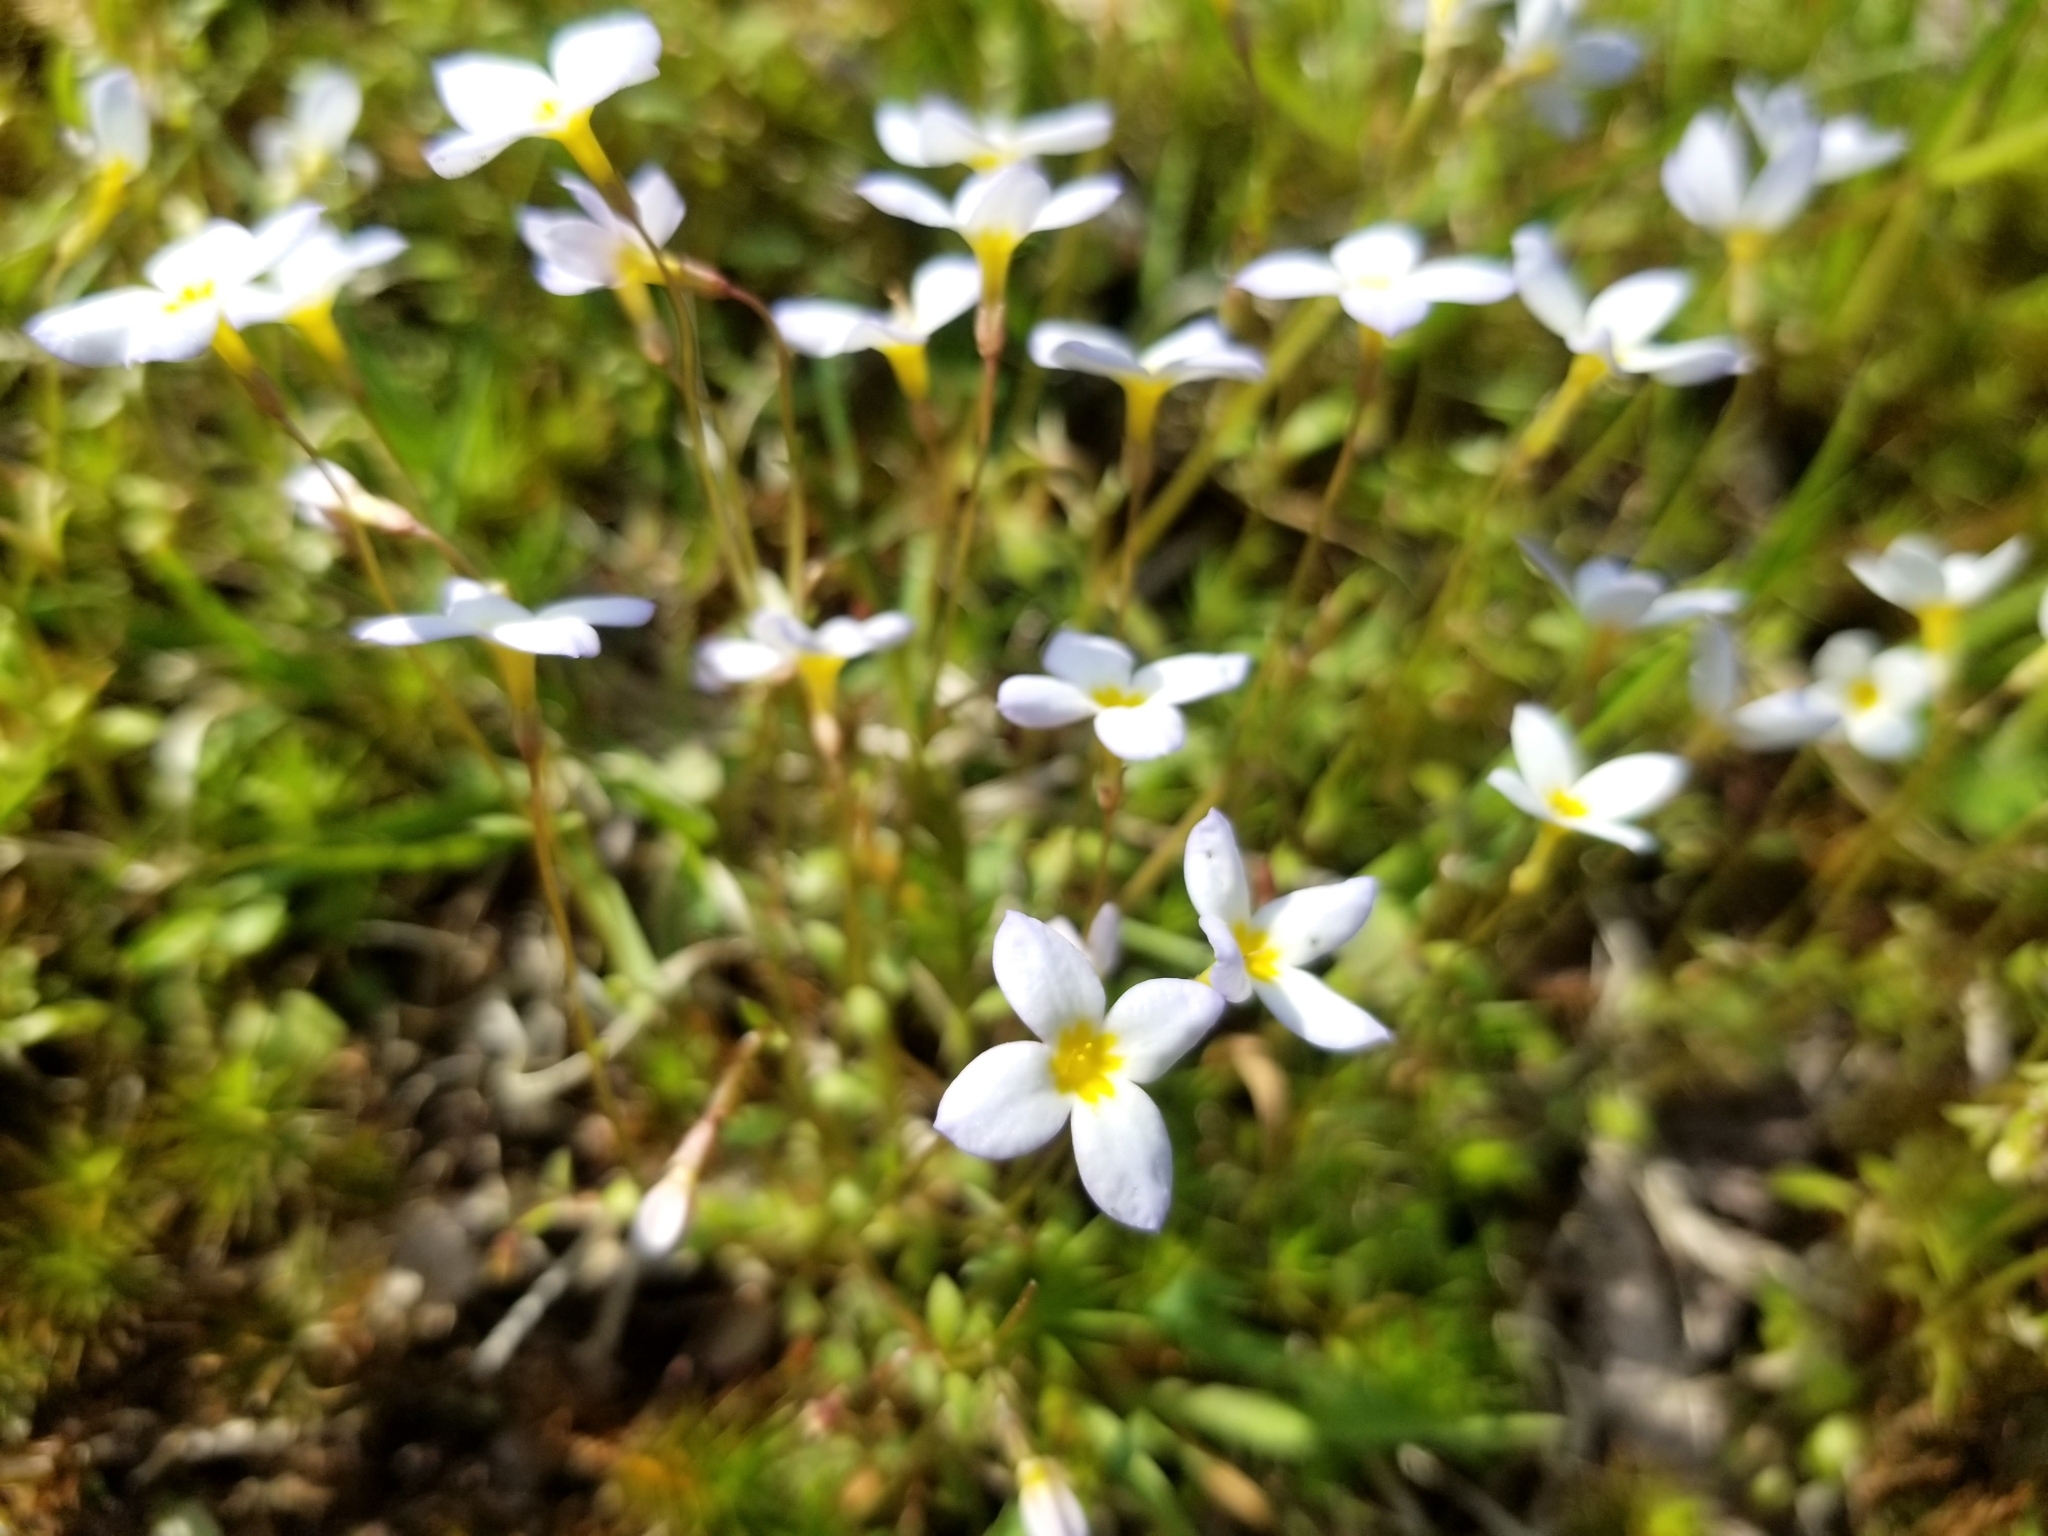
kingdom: Plantae
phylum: Tracheophyta
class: Magnoliopsida
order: Gentianales
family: Rubiaceae
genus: Houstonia
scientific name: Houstonia caerulea
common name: Bluets
